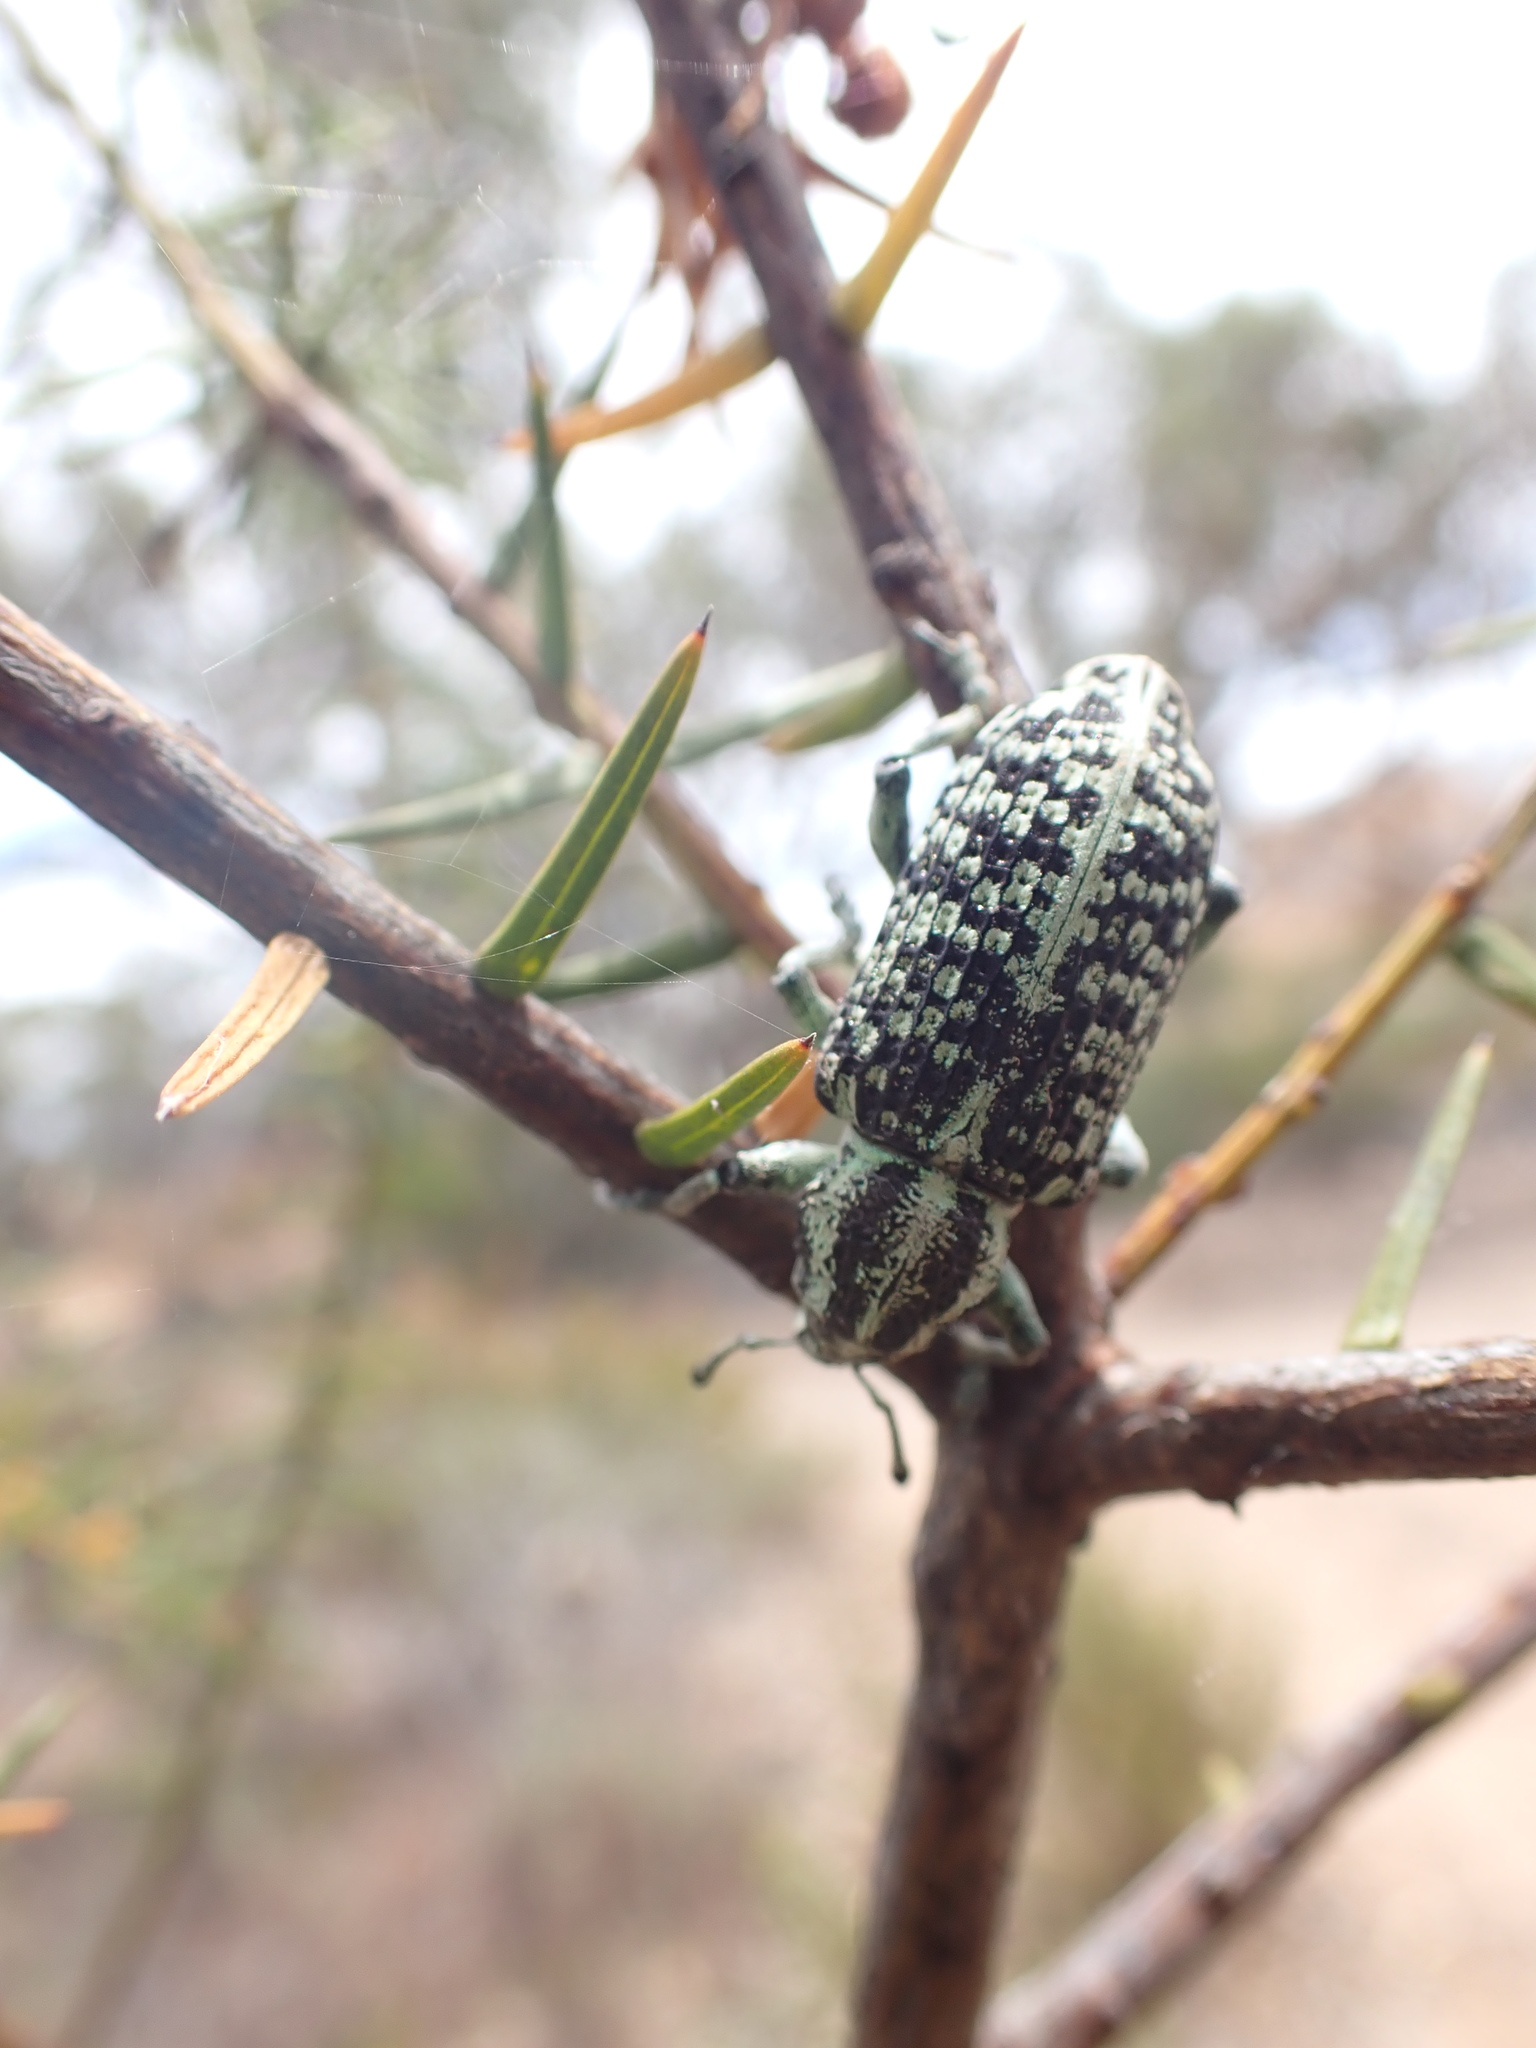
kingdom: Animalia
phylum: Arthropoda
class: Insecta
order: Coleoptera
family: Curculionidae
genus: Chrysolopus
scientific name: Chrysolopus spectabilis
